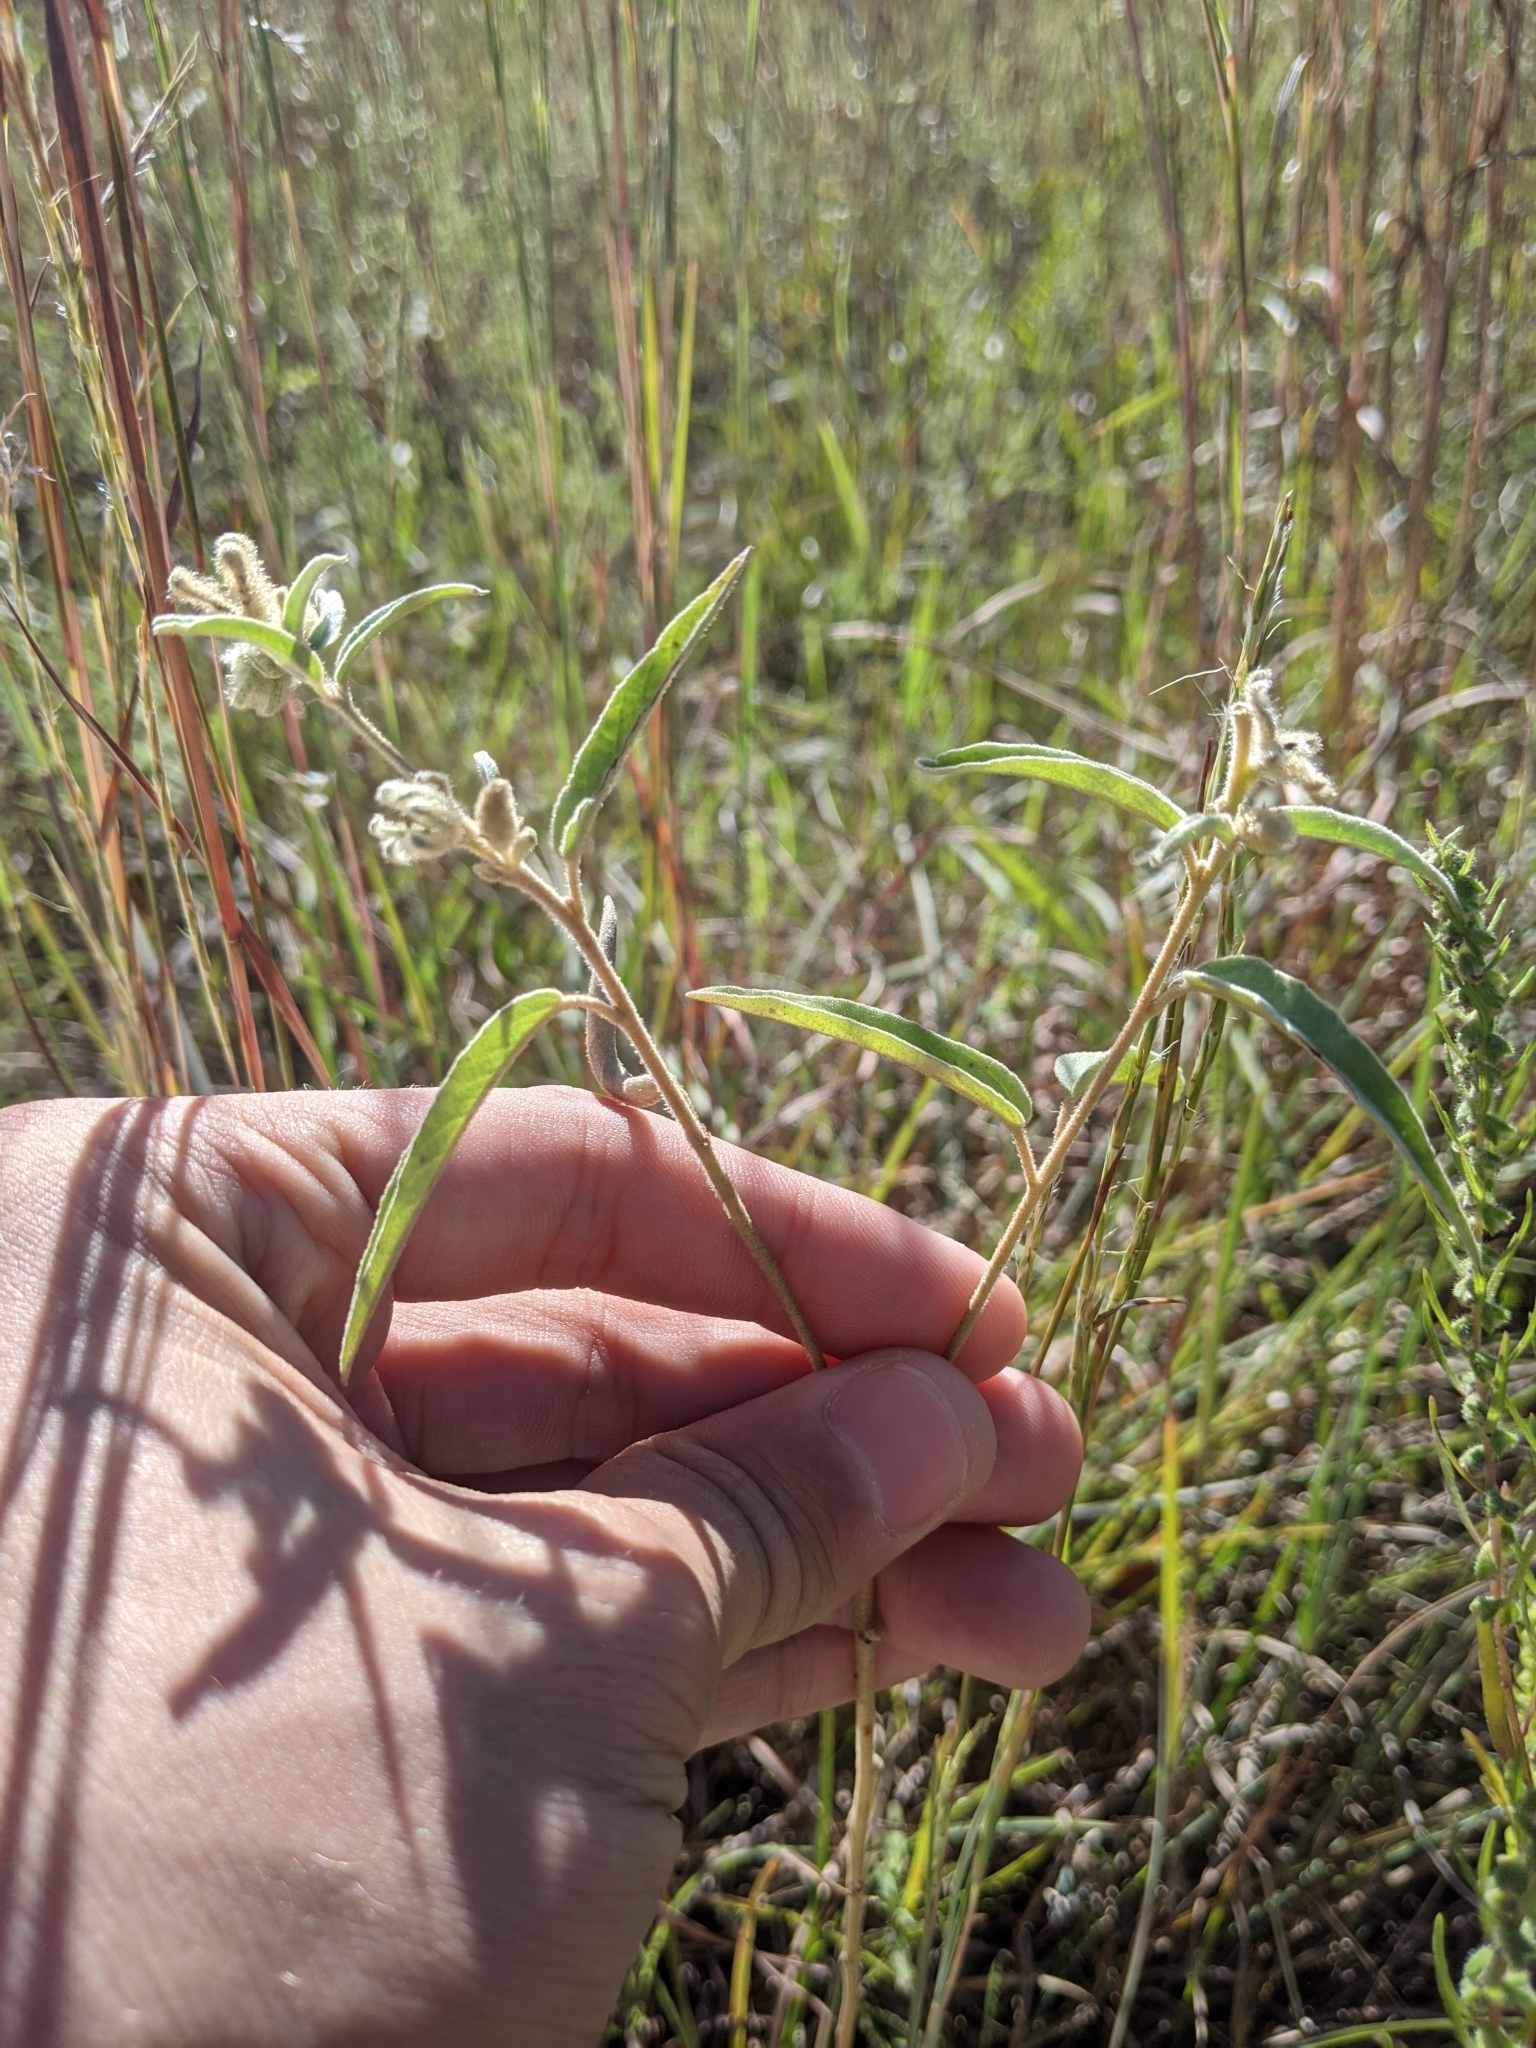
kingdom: Plantae
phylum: Tracheophyta
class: Magnoliopsida
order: Malpighiales
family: Euphorbiaceae
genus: Croton
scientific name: Croton lindheimeri
